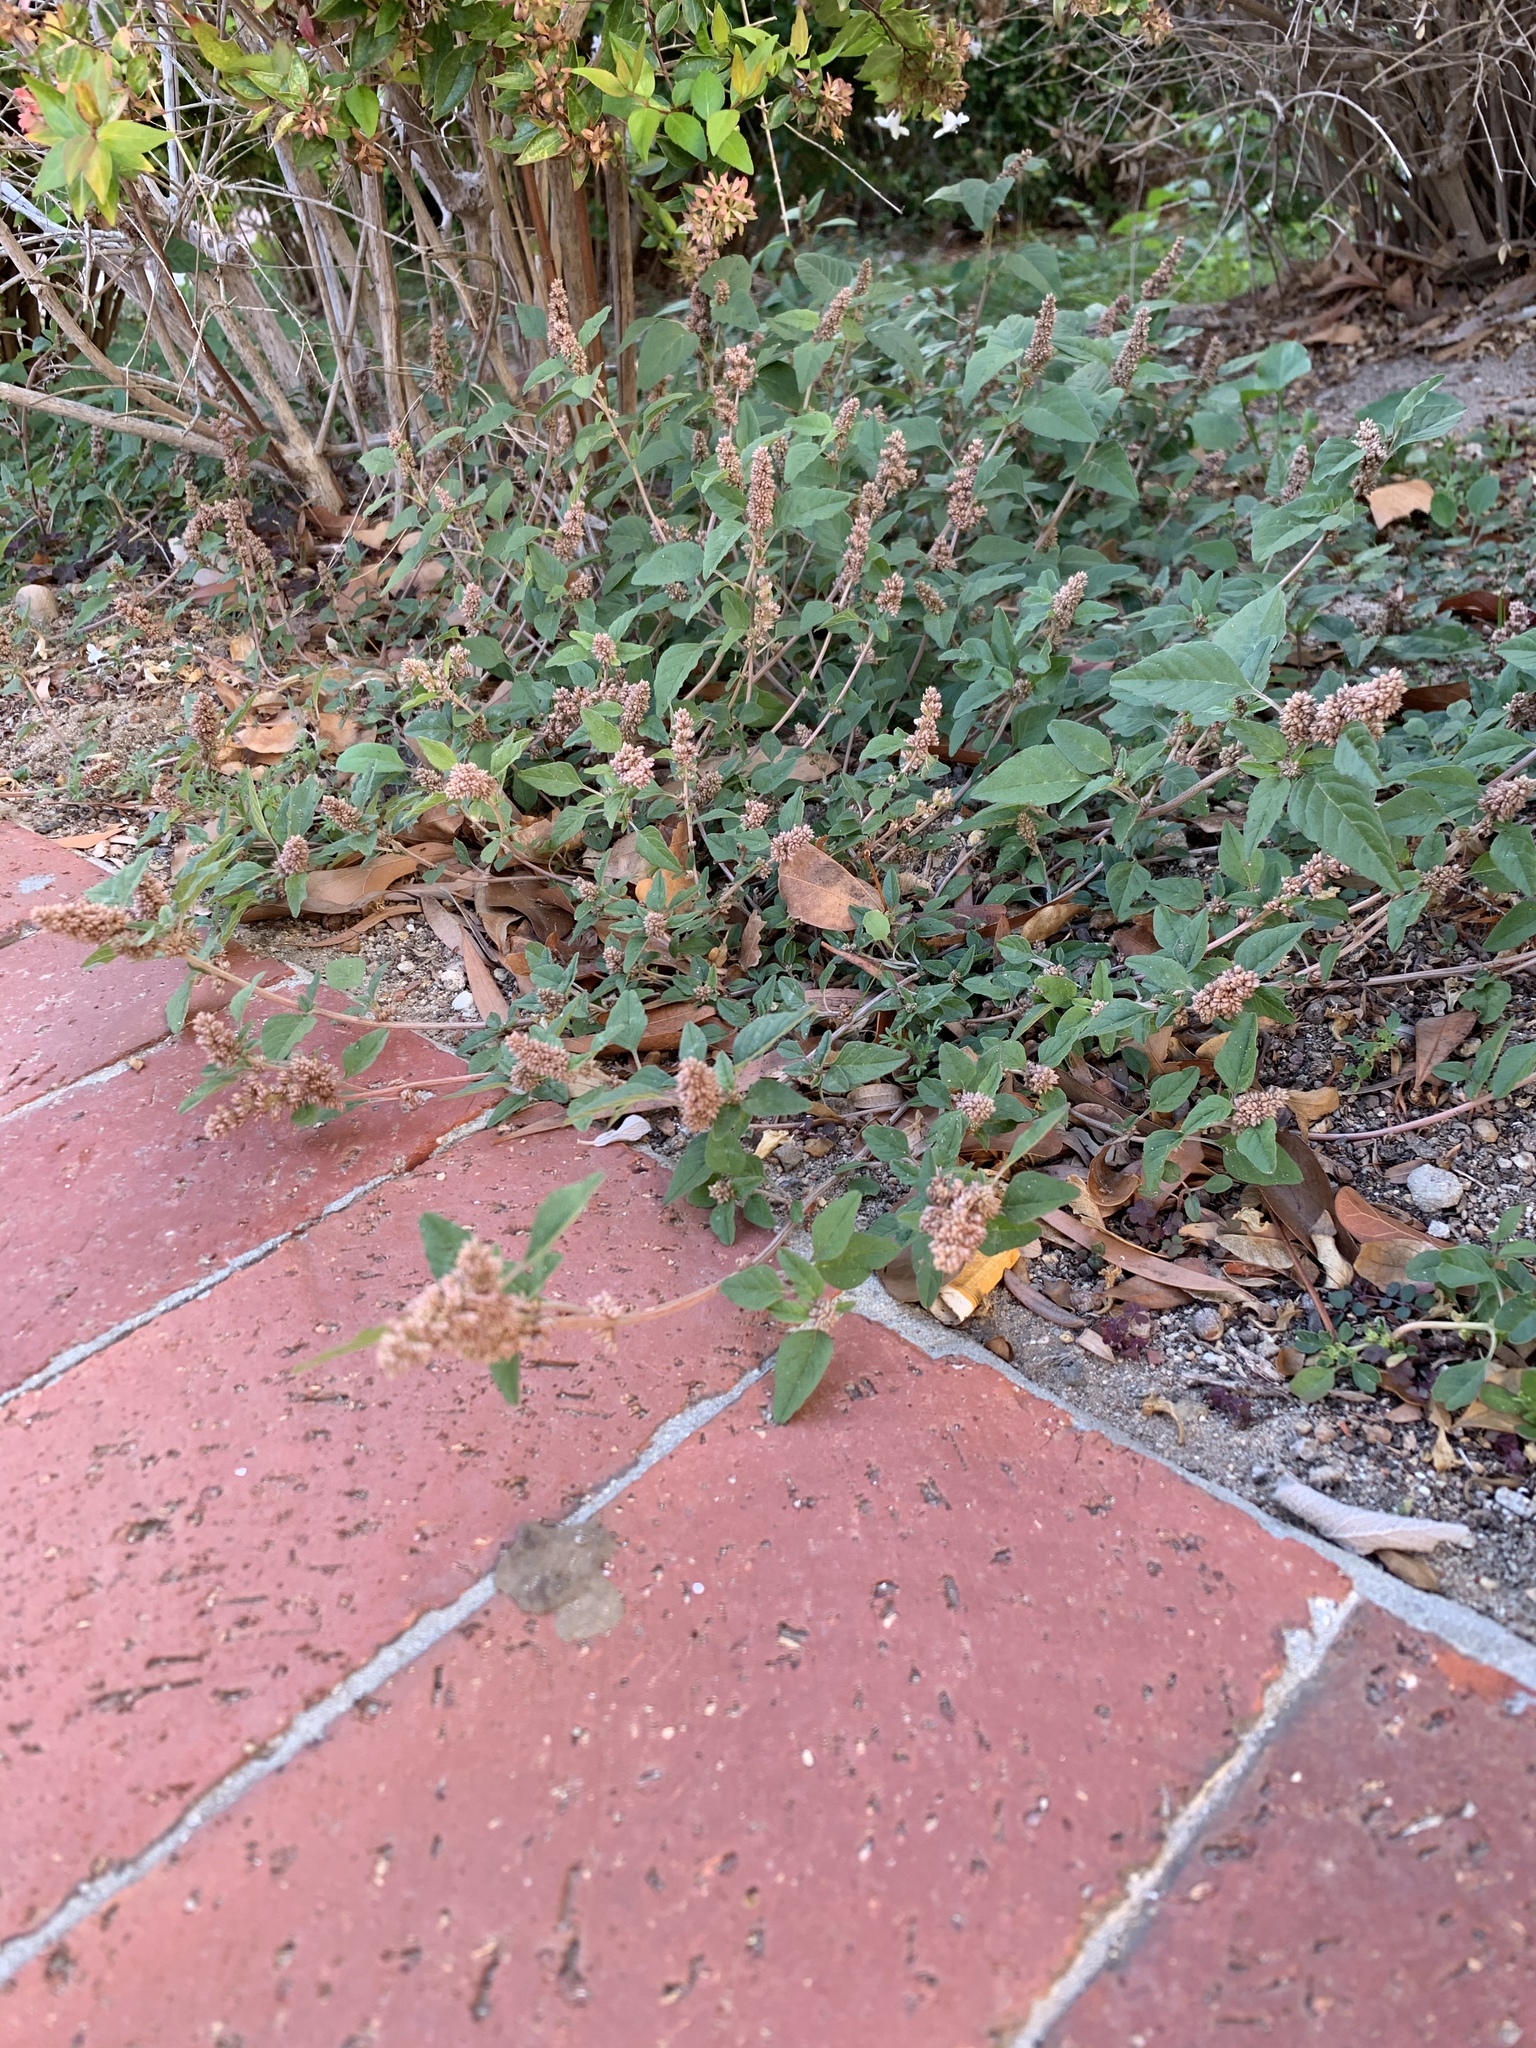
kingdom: Plantae
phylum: Tracheophyta
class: Magnoliopsida
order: Caryophyllales
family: Amaranthaceae
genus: Amaranthus
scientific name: Amaranthus deflexus
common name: Perennial pigweed
